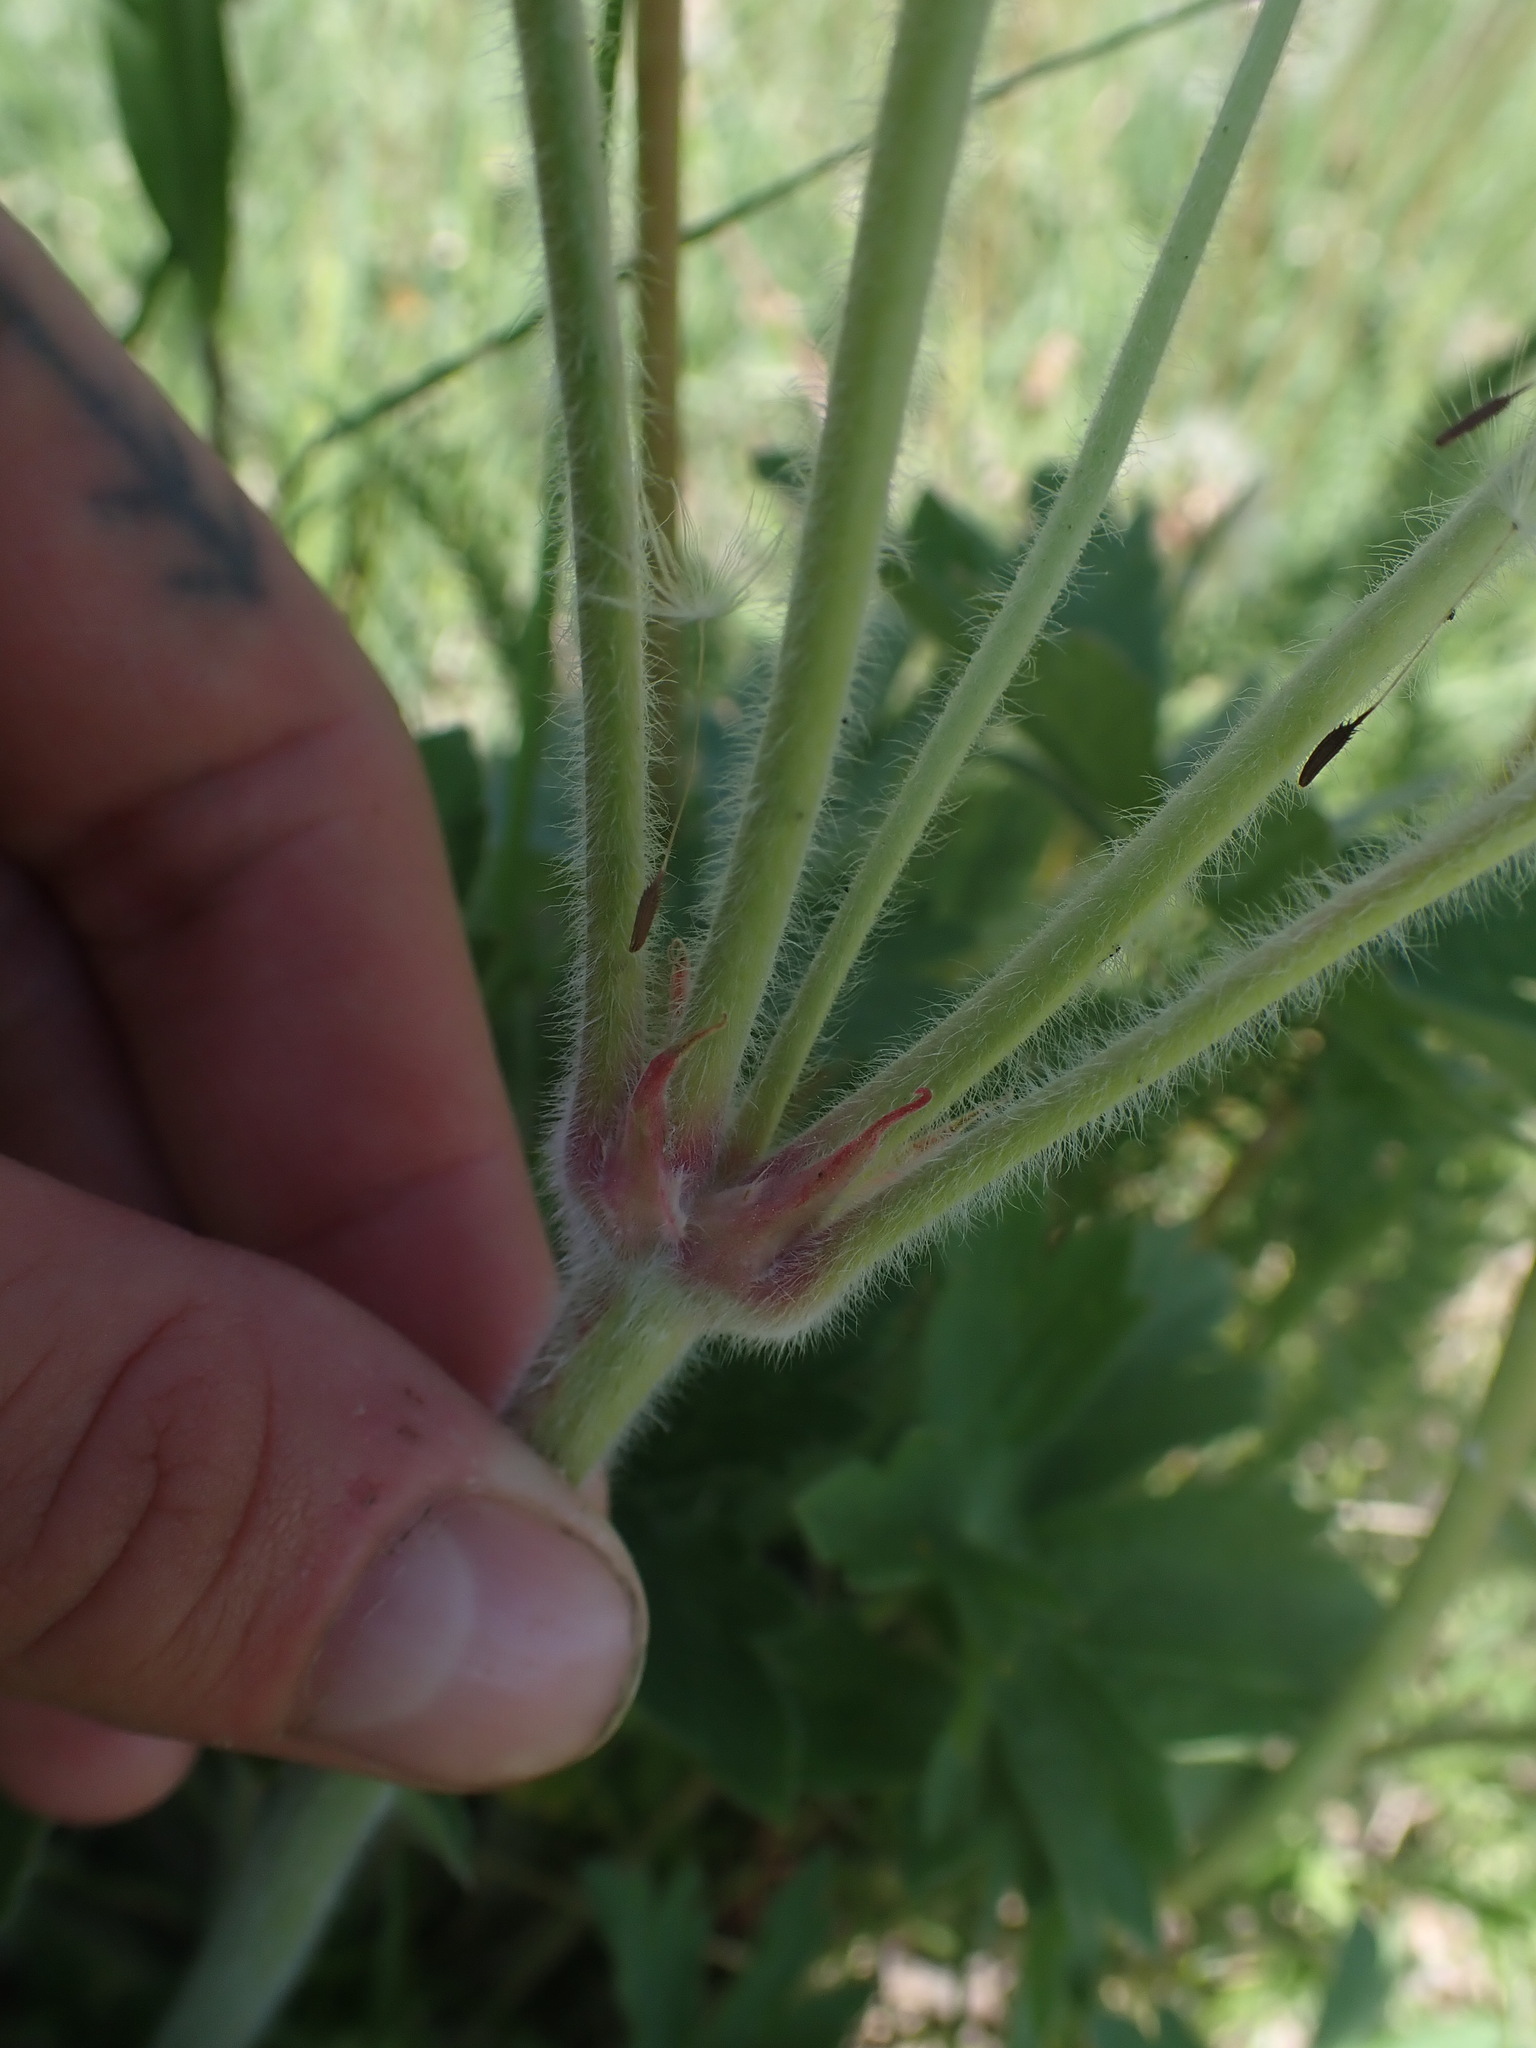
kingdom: Plantae
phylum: Tracheophyta
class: Magnoliopsida
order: Geraniales
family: Geraniaceae
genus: Geranium
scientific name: Geranium viscosissimum
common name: Purple geranium
